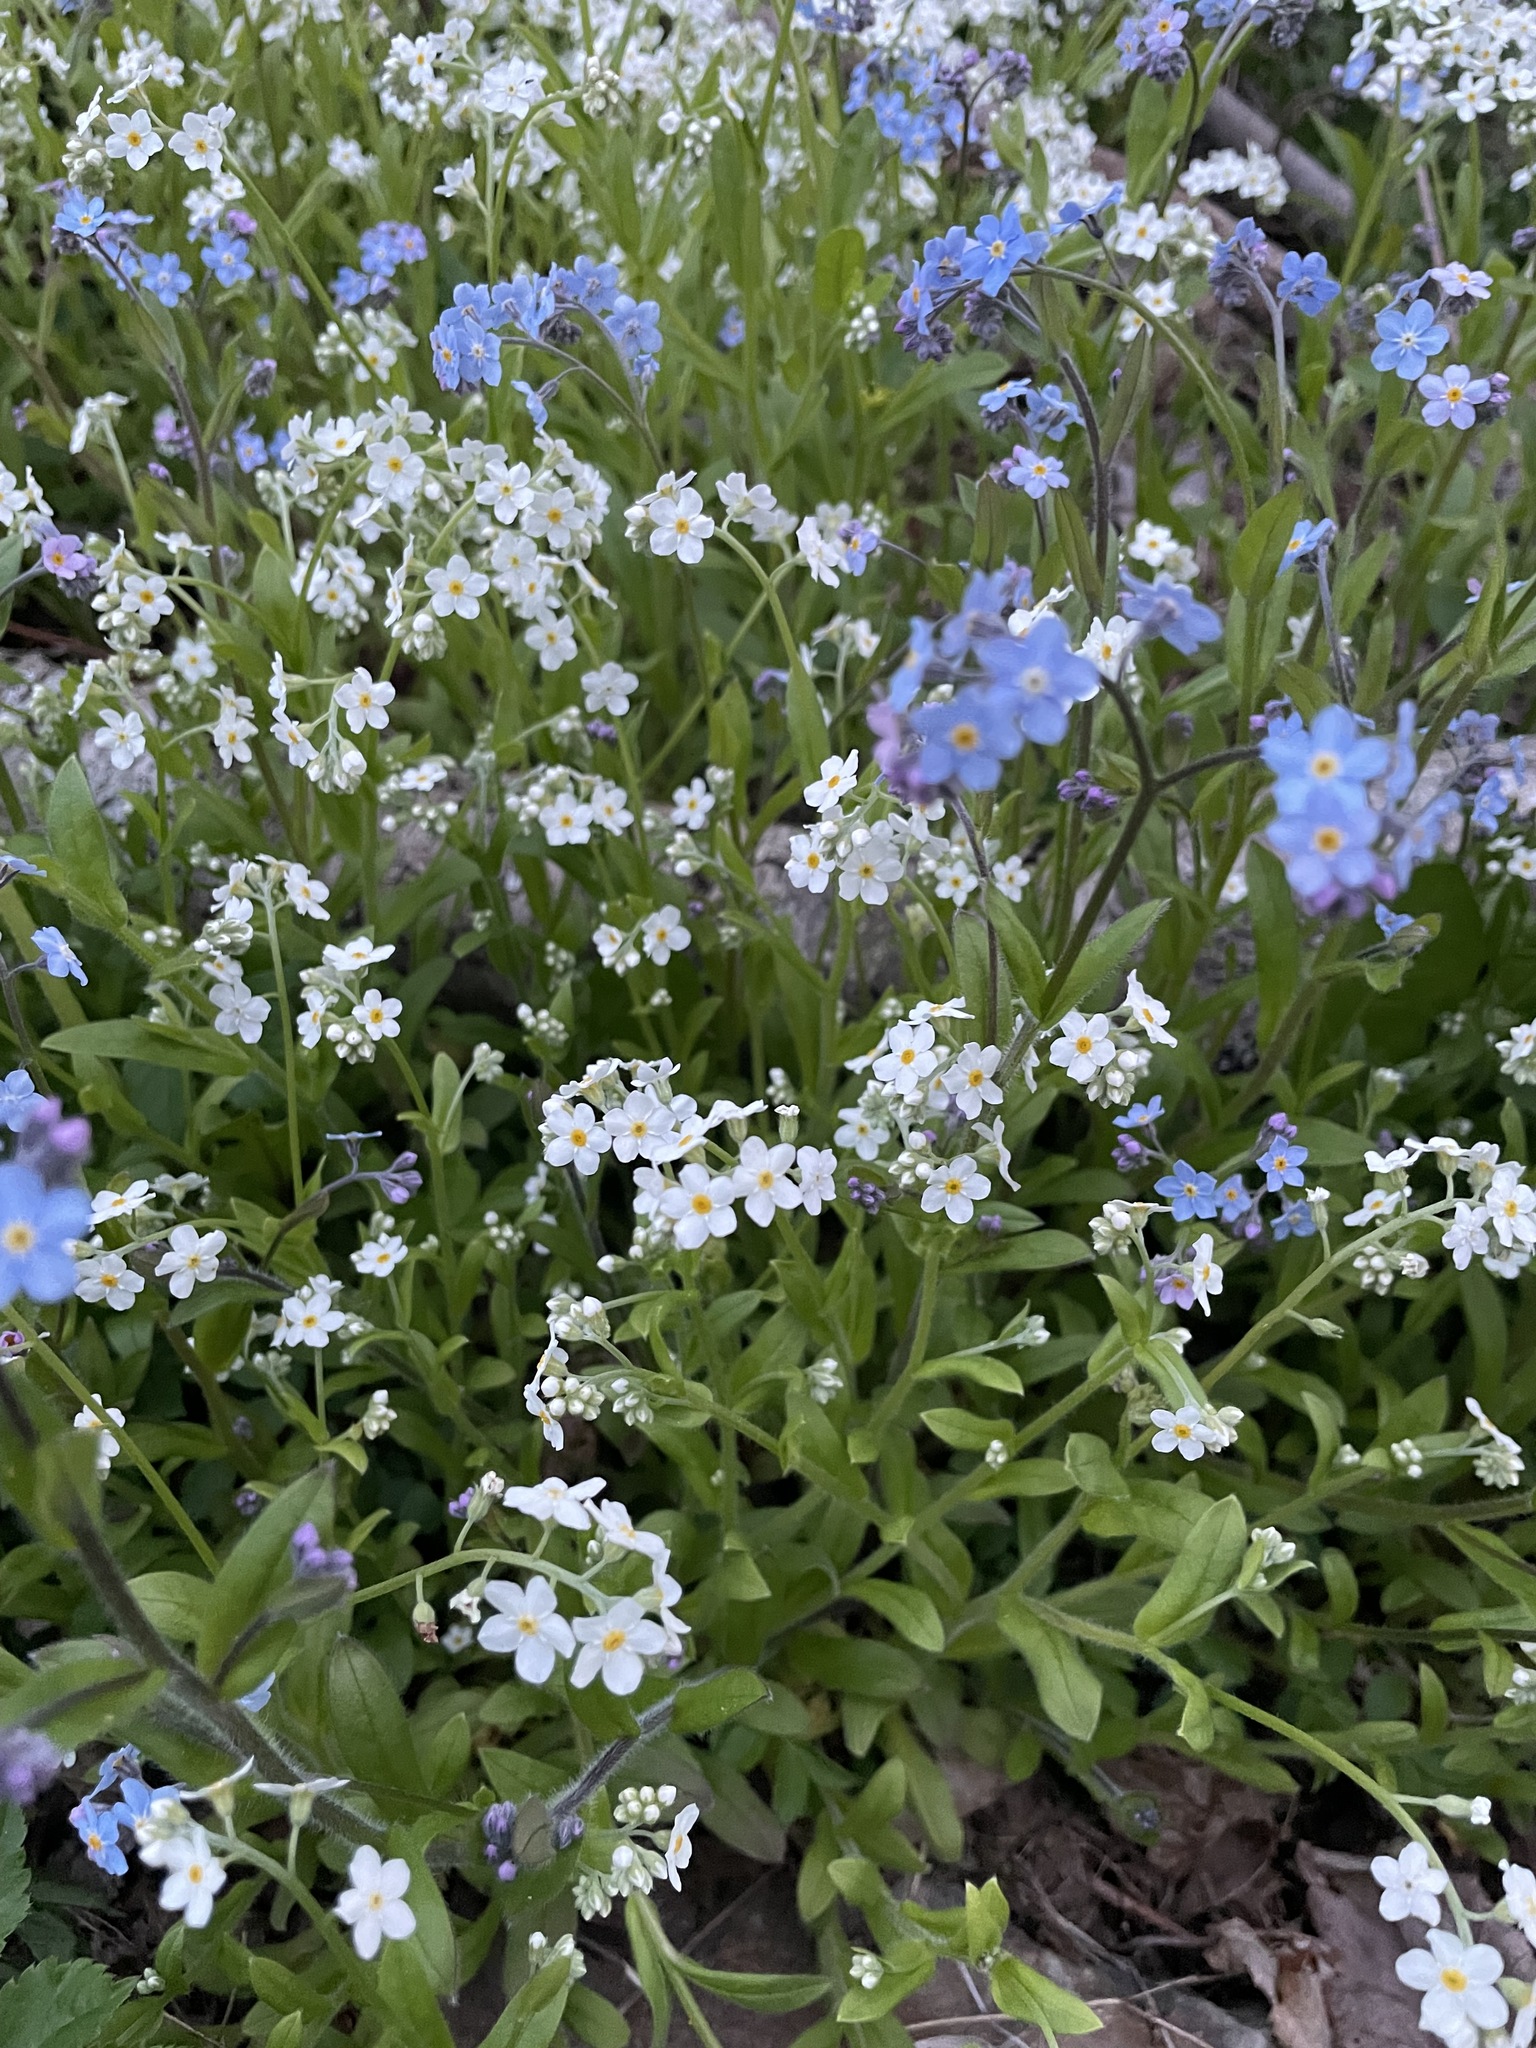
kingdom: Plantae
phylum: Tracheophyta
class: Magnoliopsida
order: Boraginales
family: Boraginaceae
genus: Myosotis
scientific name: Myosotis sylvatica
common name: Wood forget-me-not
